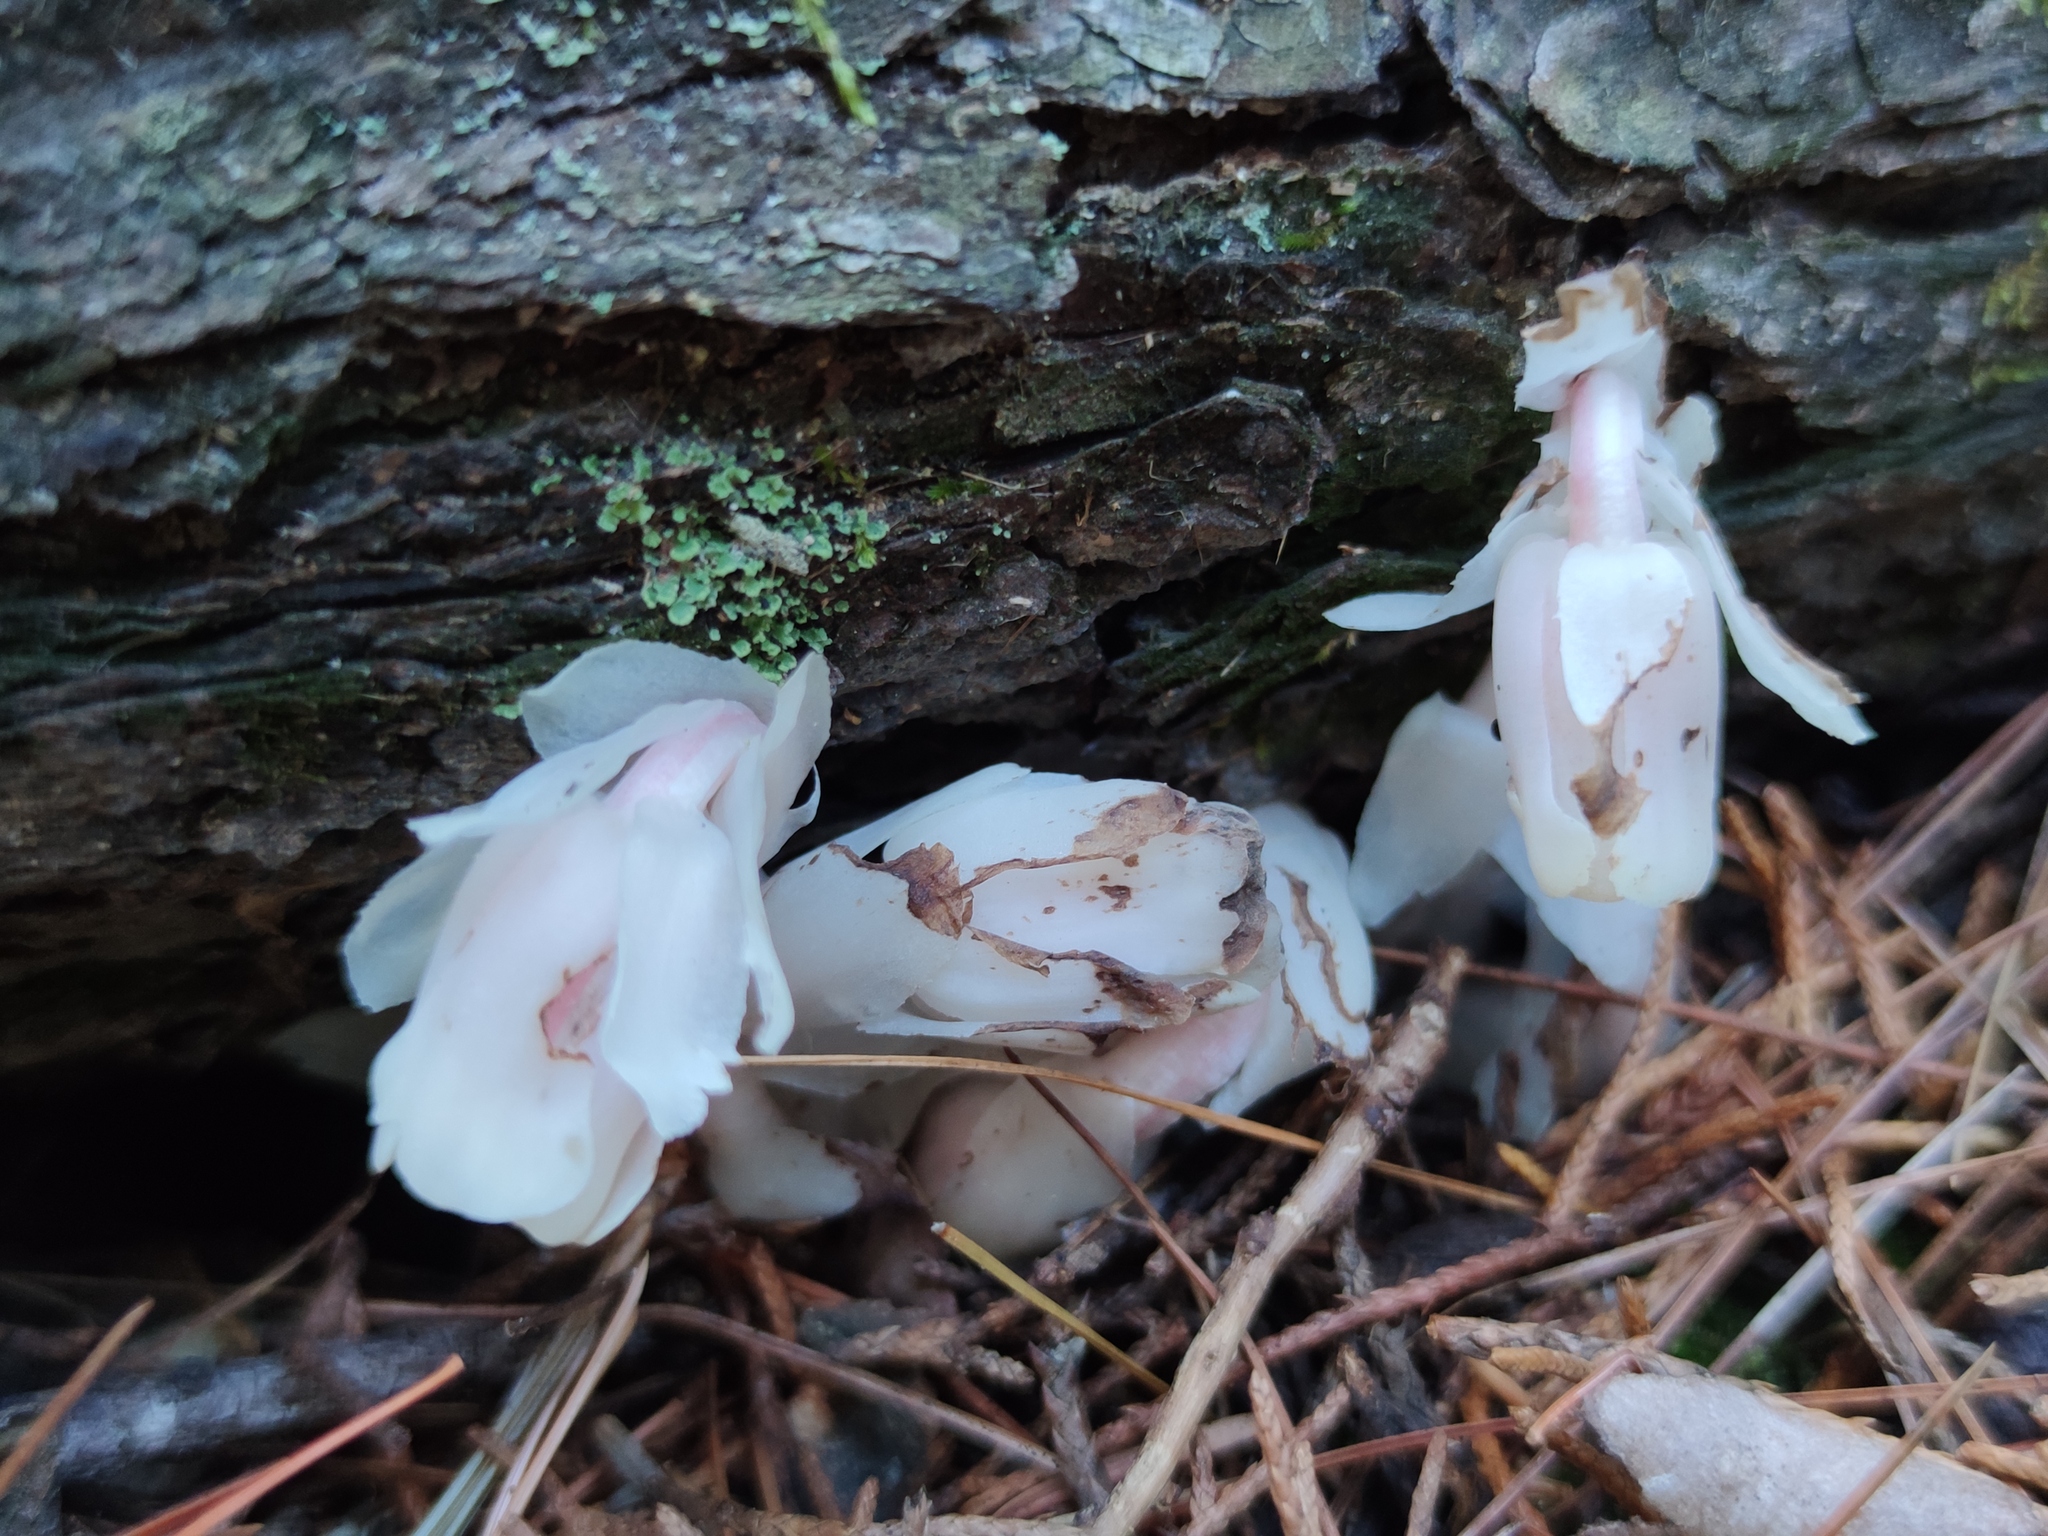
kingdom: Plantae
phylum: Tracheophyta
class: Magnoliopsida
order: Ericales
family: Ericaceae
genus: Monotropa
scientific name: Monotropa uniflora
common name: Convulsion root
